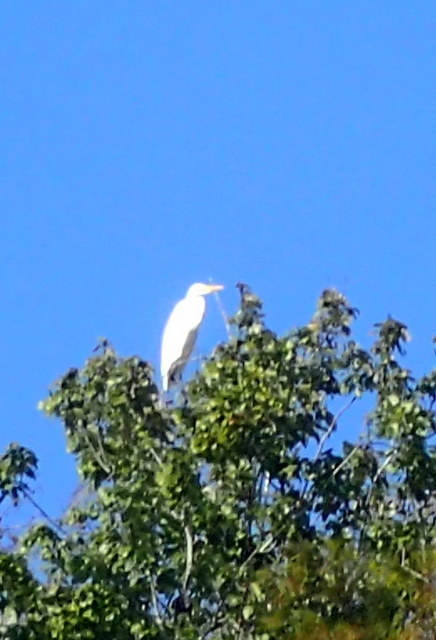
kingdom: Animalia
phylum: Chordata
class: Aves
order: Pelecaniformes
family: Ardeidae
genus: Ardea
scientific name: Ardea alba
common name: Great egret
